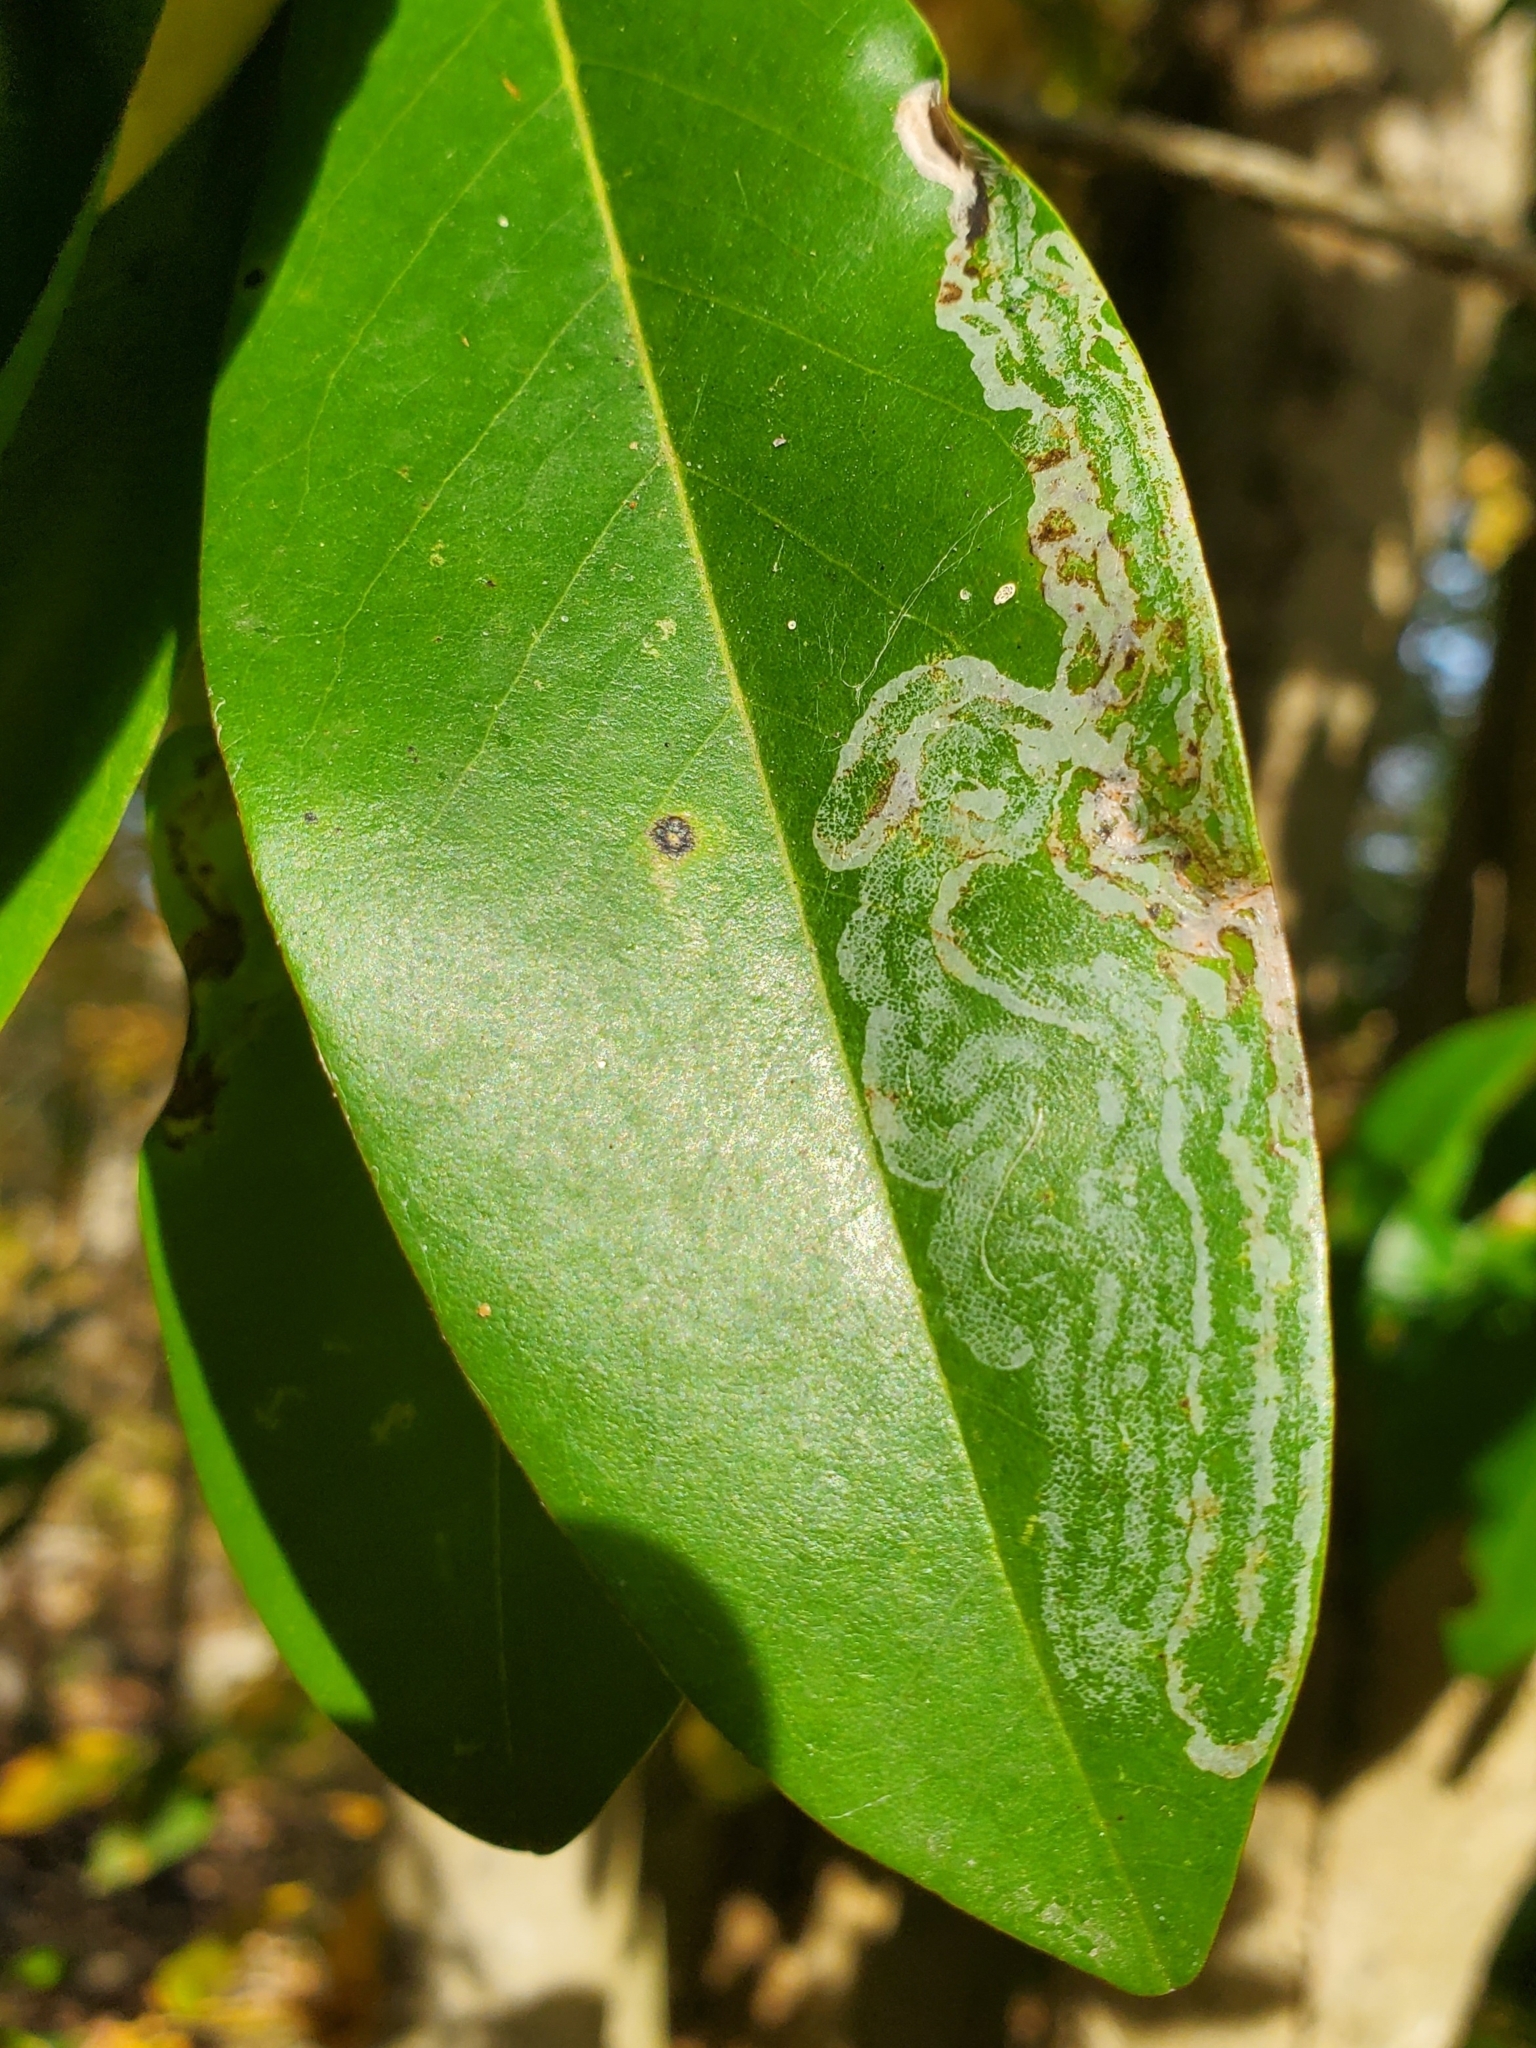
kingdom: Animalia
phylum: Arthropoda
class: Insecta
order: Lepidoptera
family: Gracillariidae
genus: Phyllocnistis
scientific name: Phyllocnistis liriodendronella
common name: Tulip tree leaf miner
